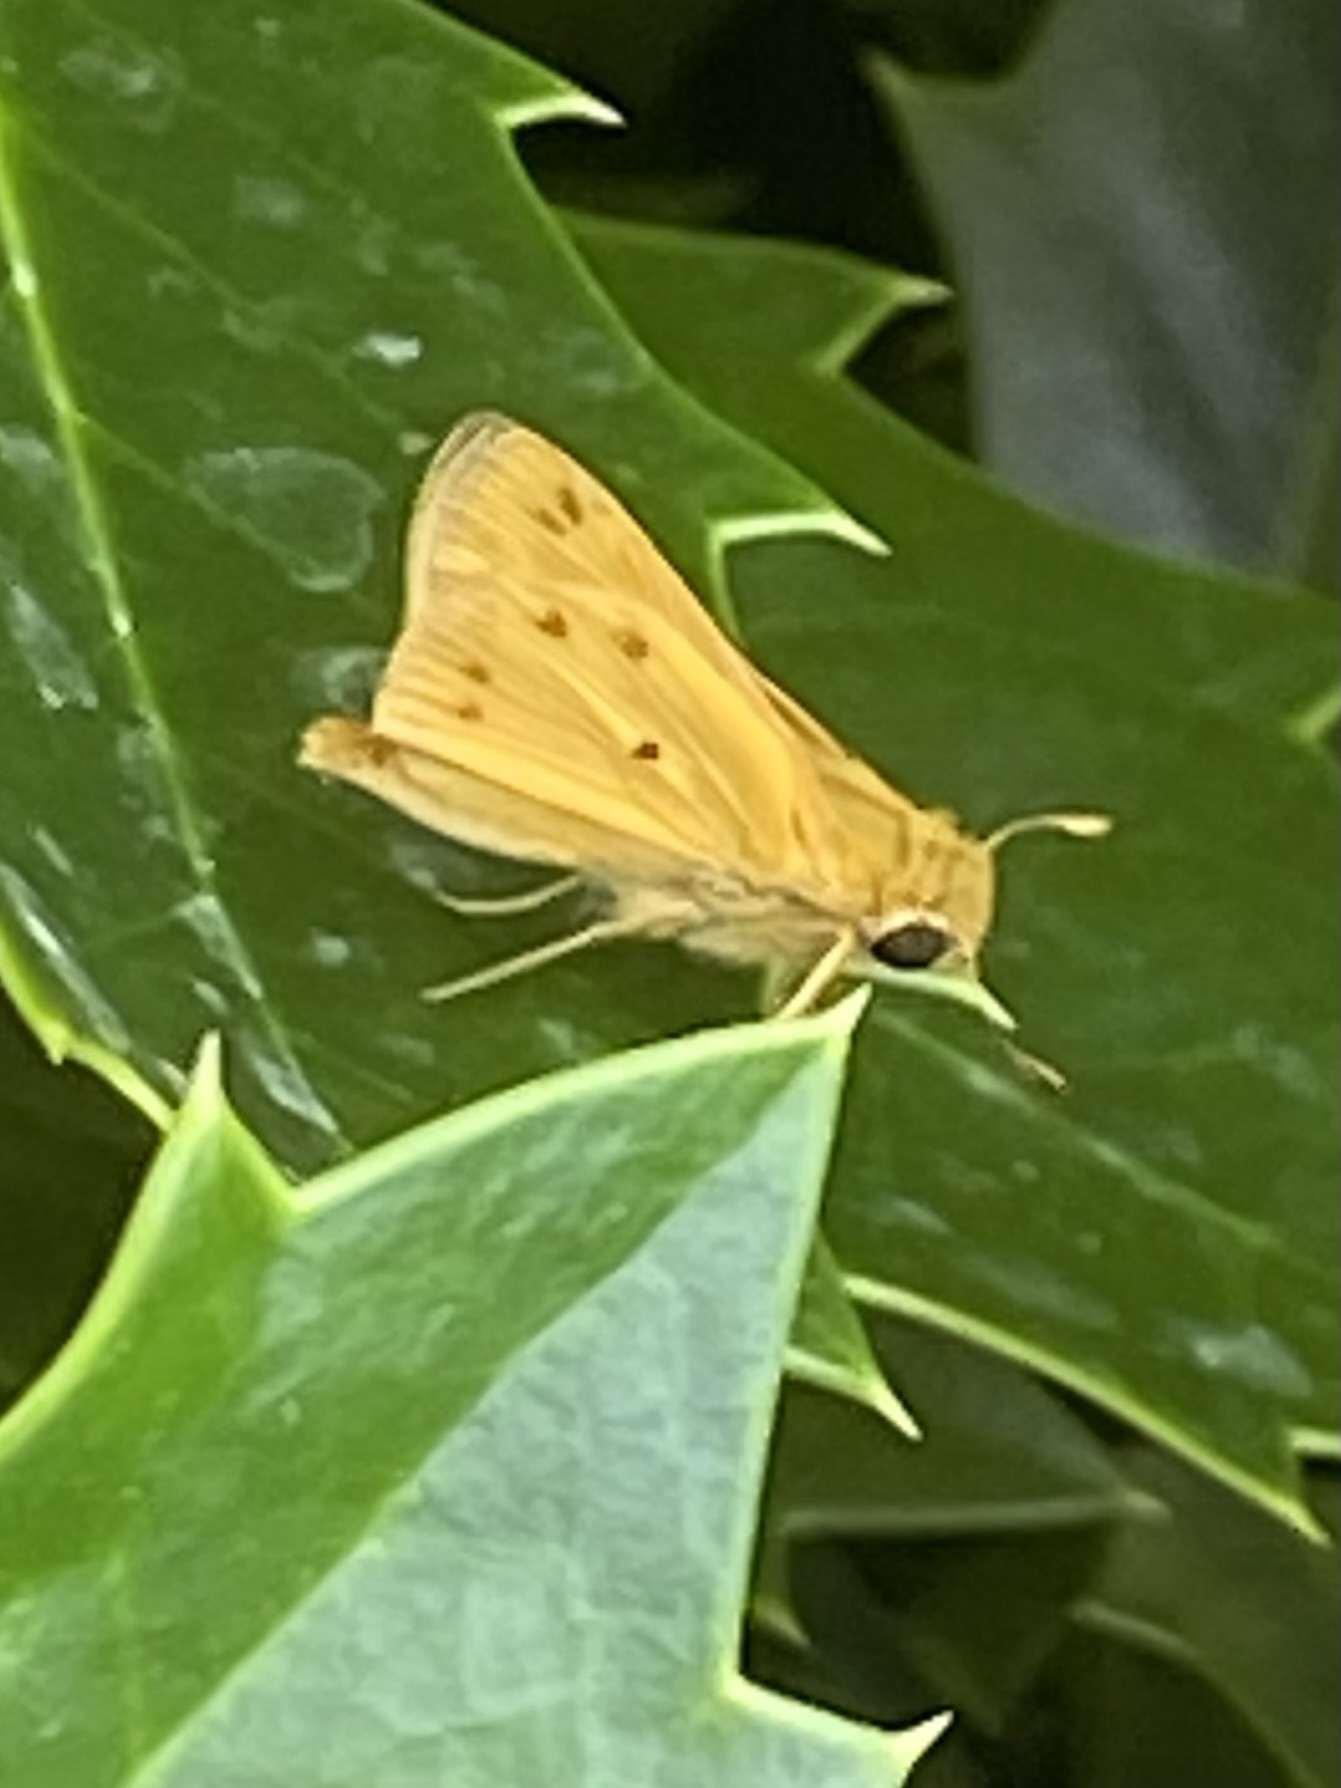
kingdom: Animalia
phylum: Arthropoda
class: Insecta
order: Lepidoptera
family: Hesperiidae
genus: Hylephila
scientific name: Hylephila phyleus
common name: Fiery skipper
